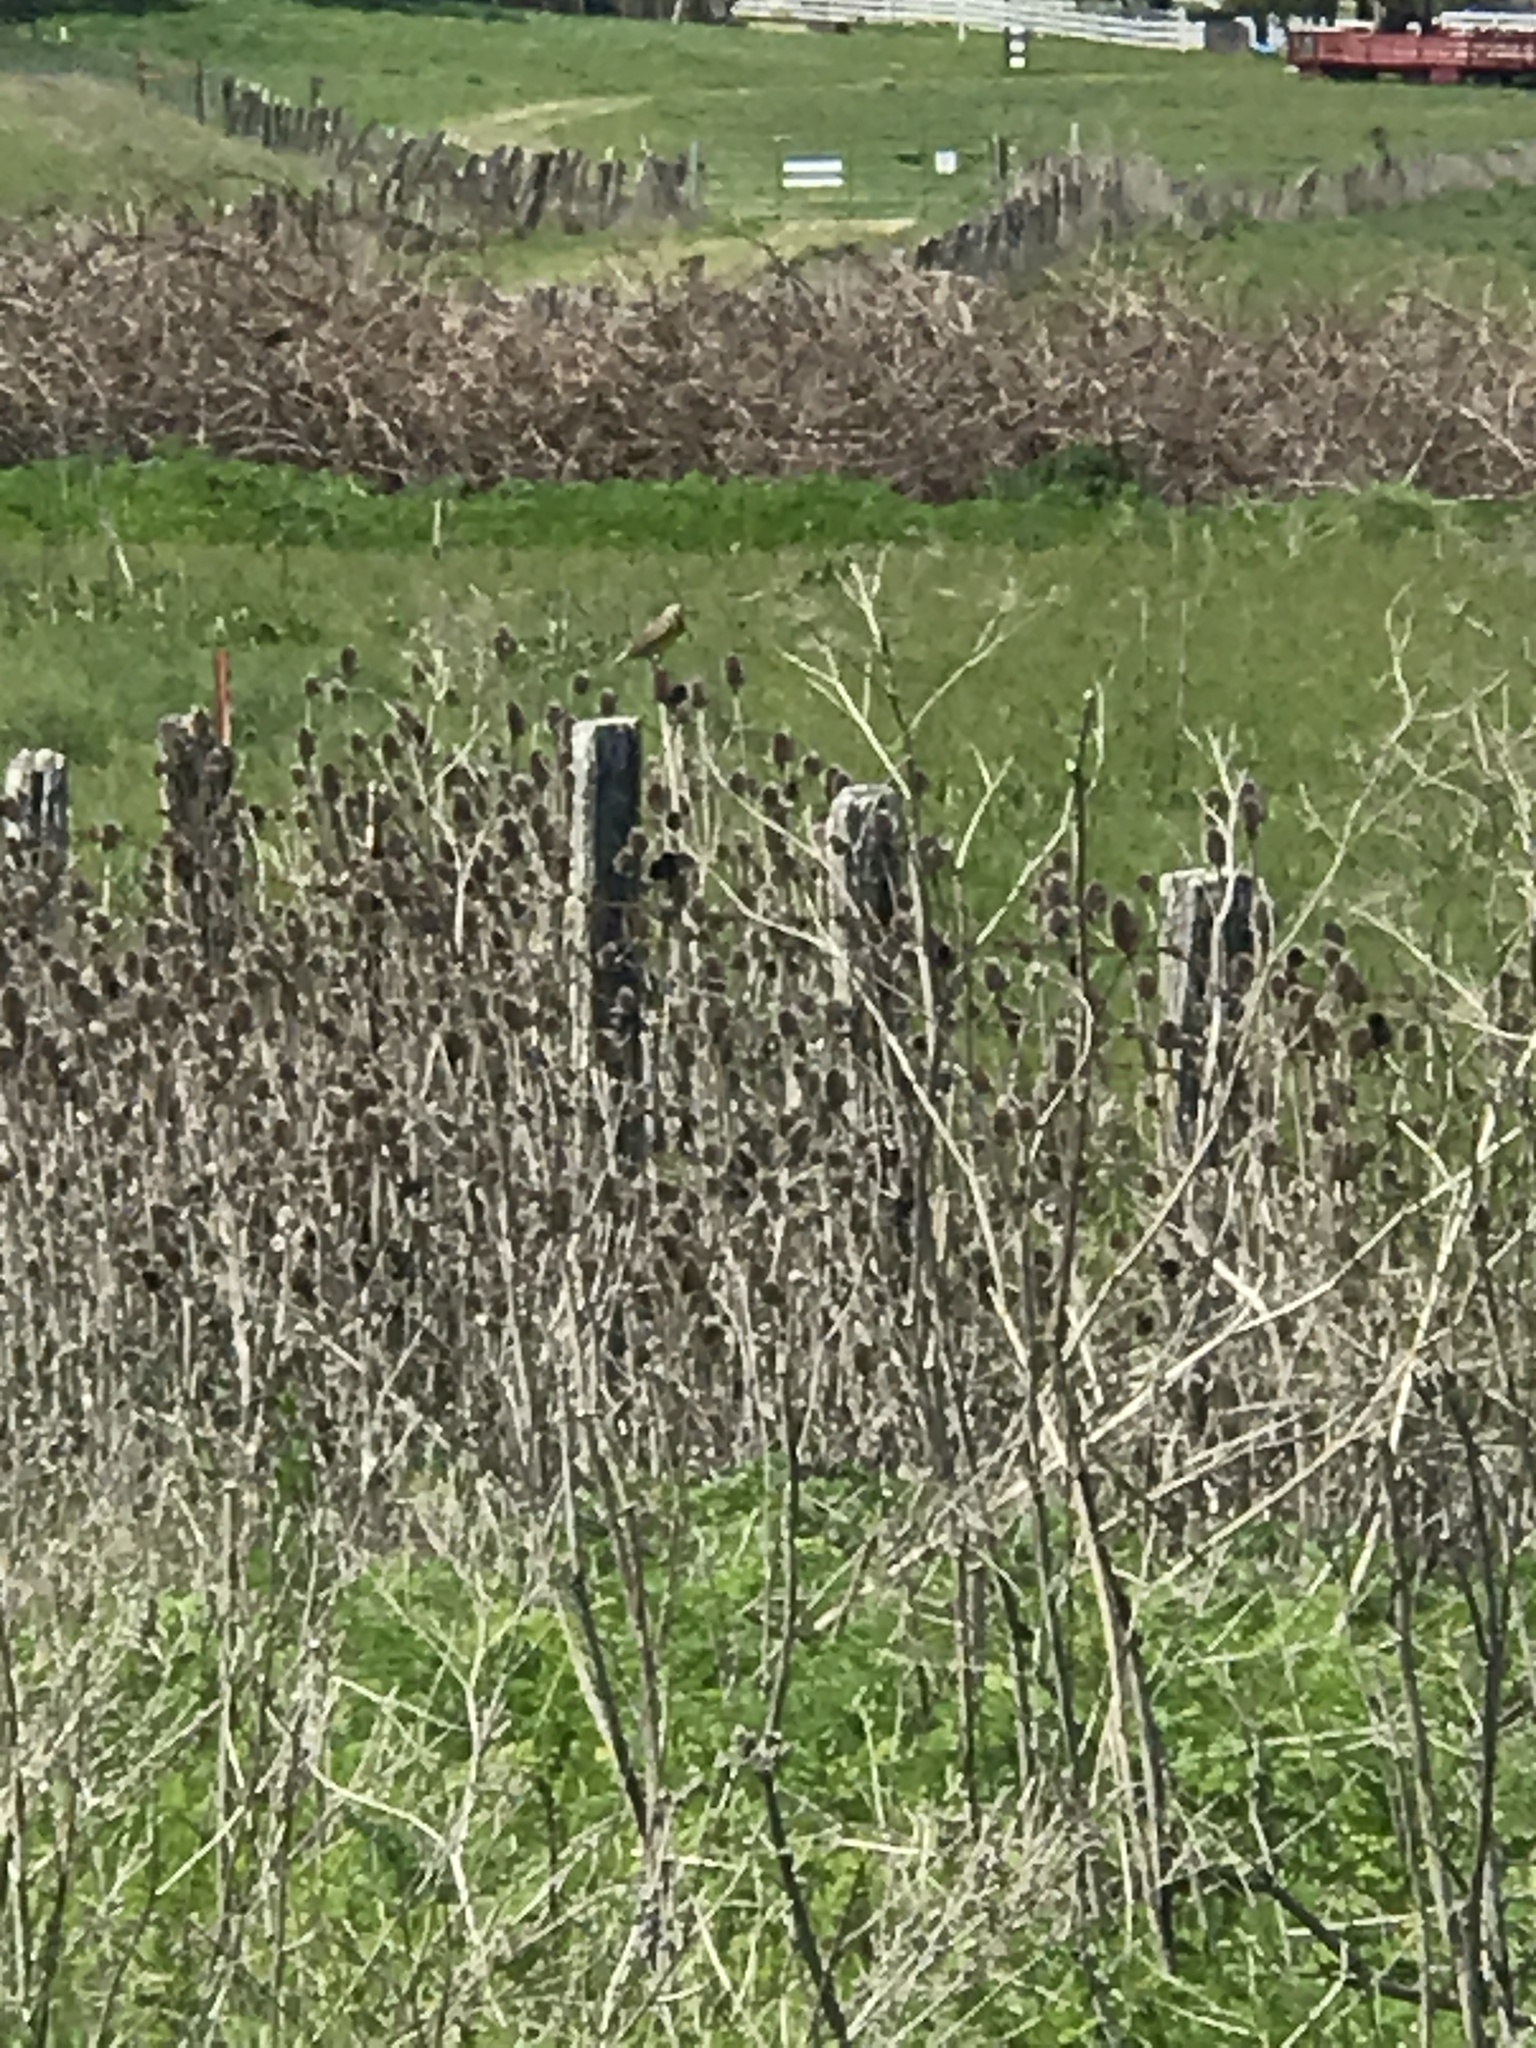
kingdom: Animalia
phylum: Chordata
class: Aves
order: Passeriformes
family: Icteridae
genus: Sturnella
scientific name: Sturnella neglecta
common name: Western meadowlark
